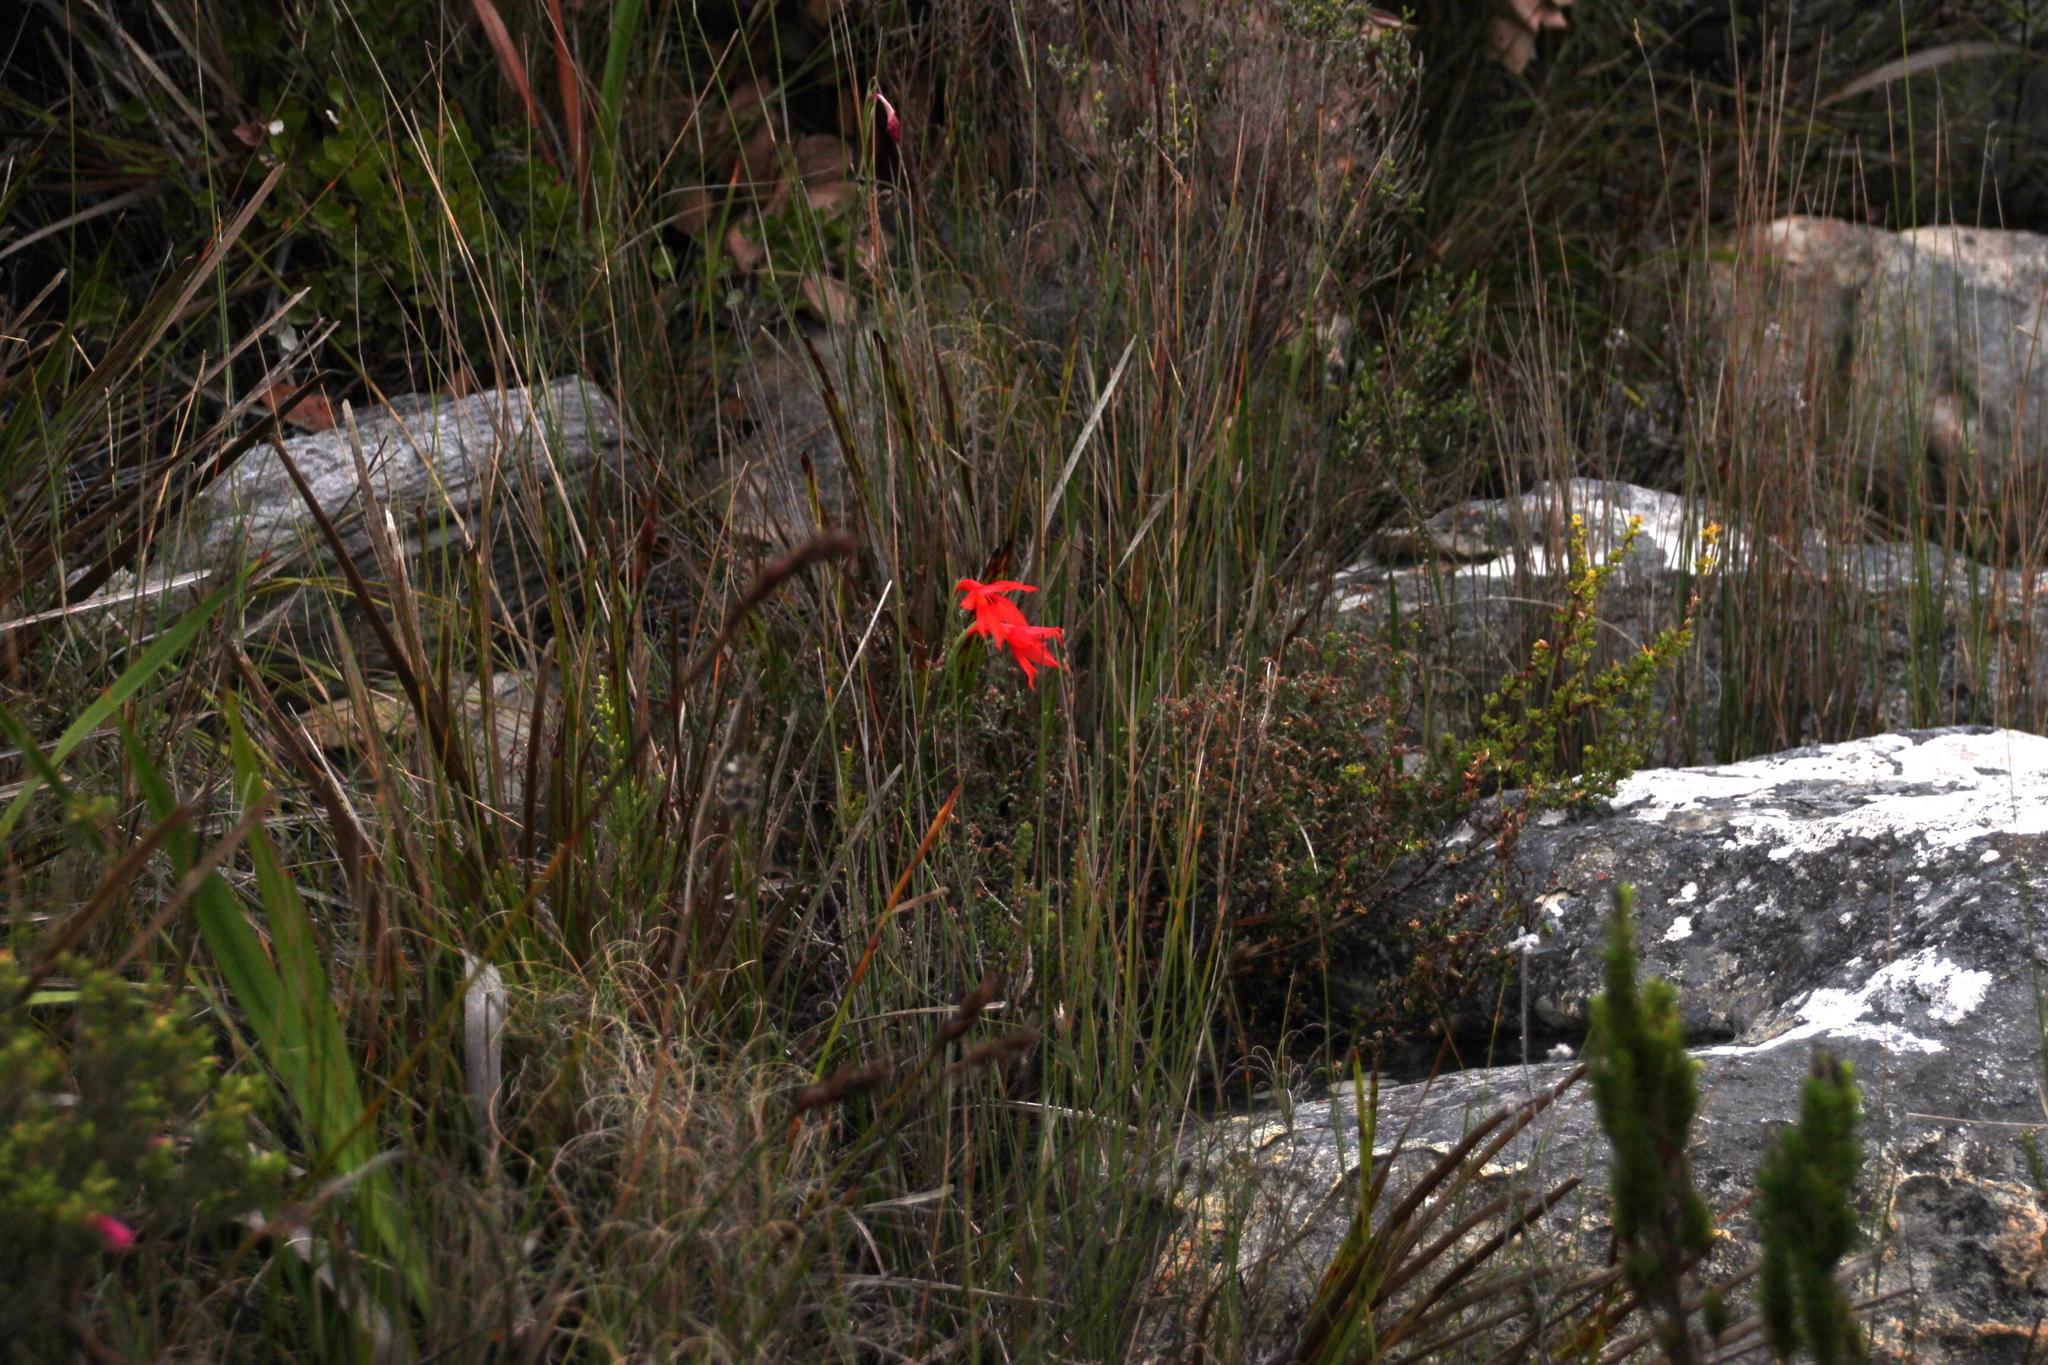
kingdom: Plantae
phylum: Tracheophyta
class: Liliopsida
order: Asparagales
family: Iridaceae
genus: Gladiolus
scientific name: Gladiolus priorii
